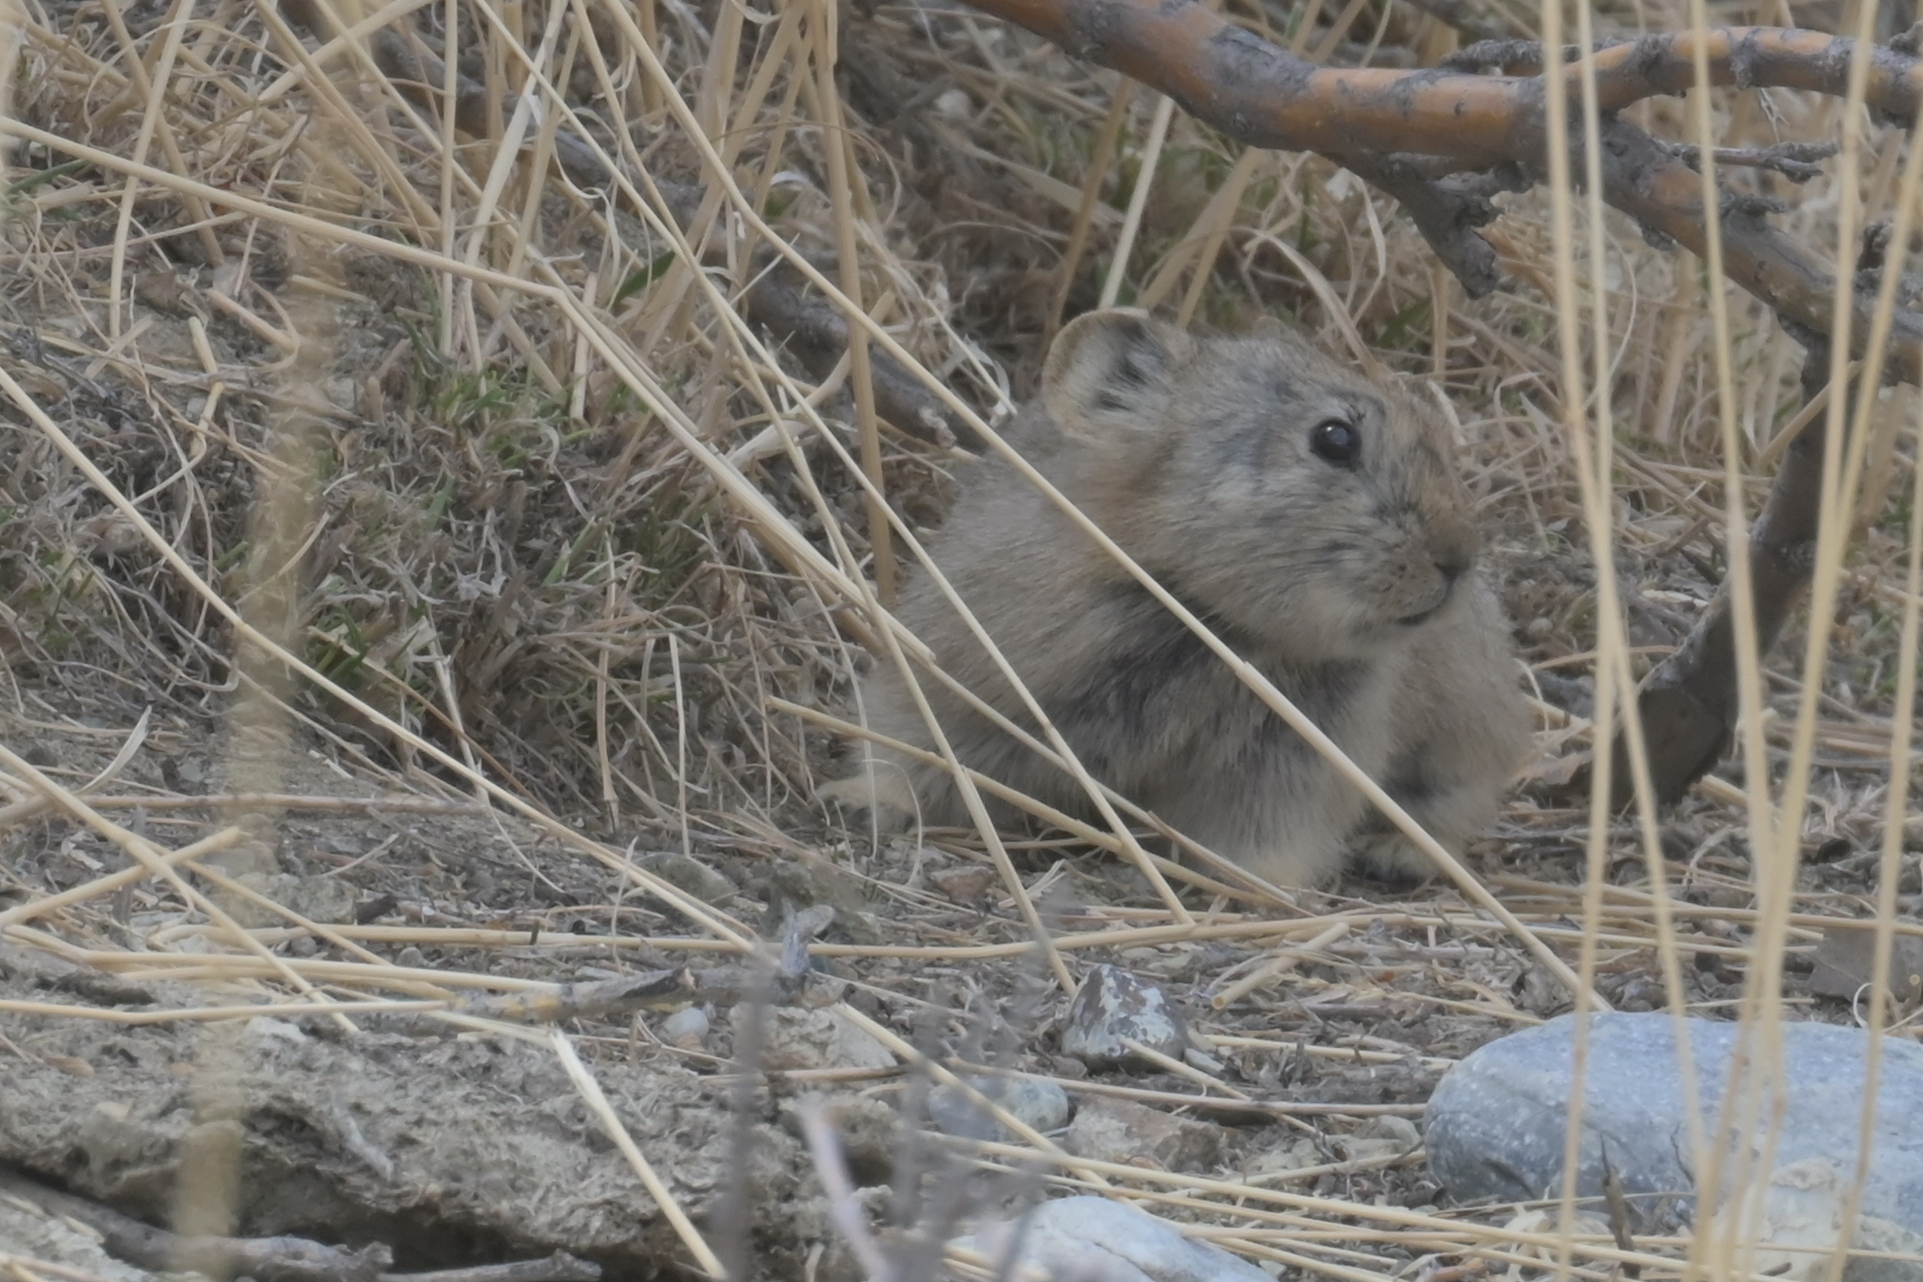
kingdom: Animalia
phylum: Chordata
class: Mammalia
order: Lagomorpha
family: Ochotonidae
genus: Ochotona
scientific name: Ochotona alpina
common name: Alpine pika
